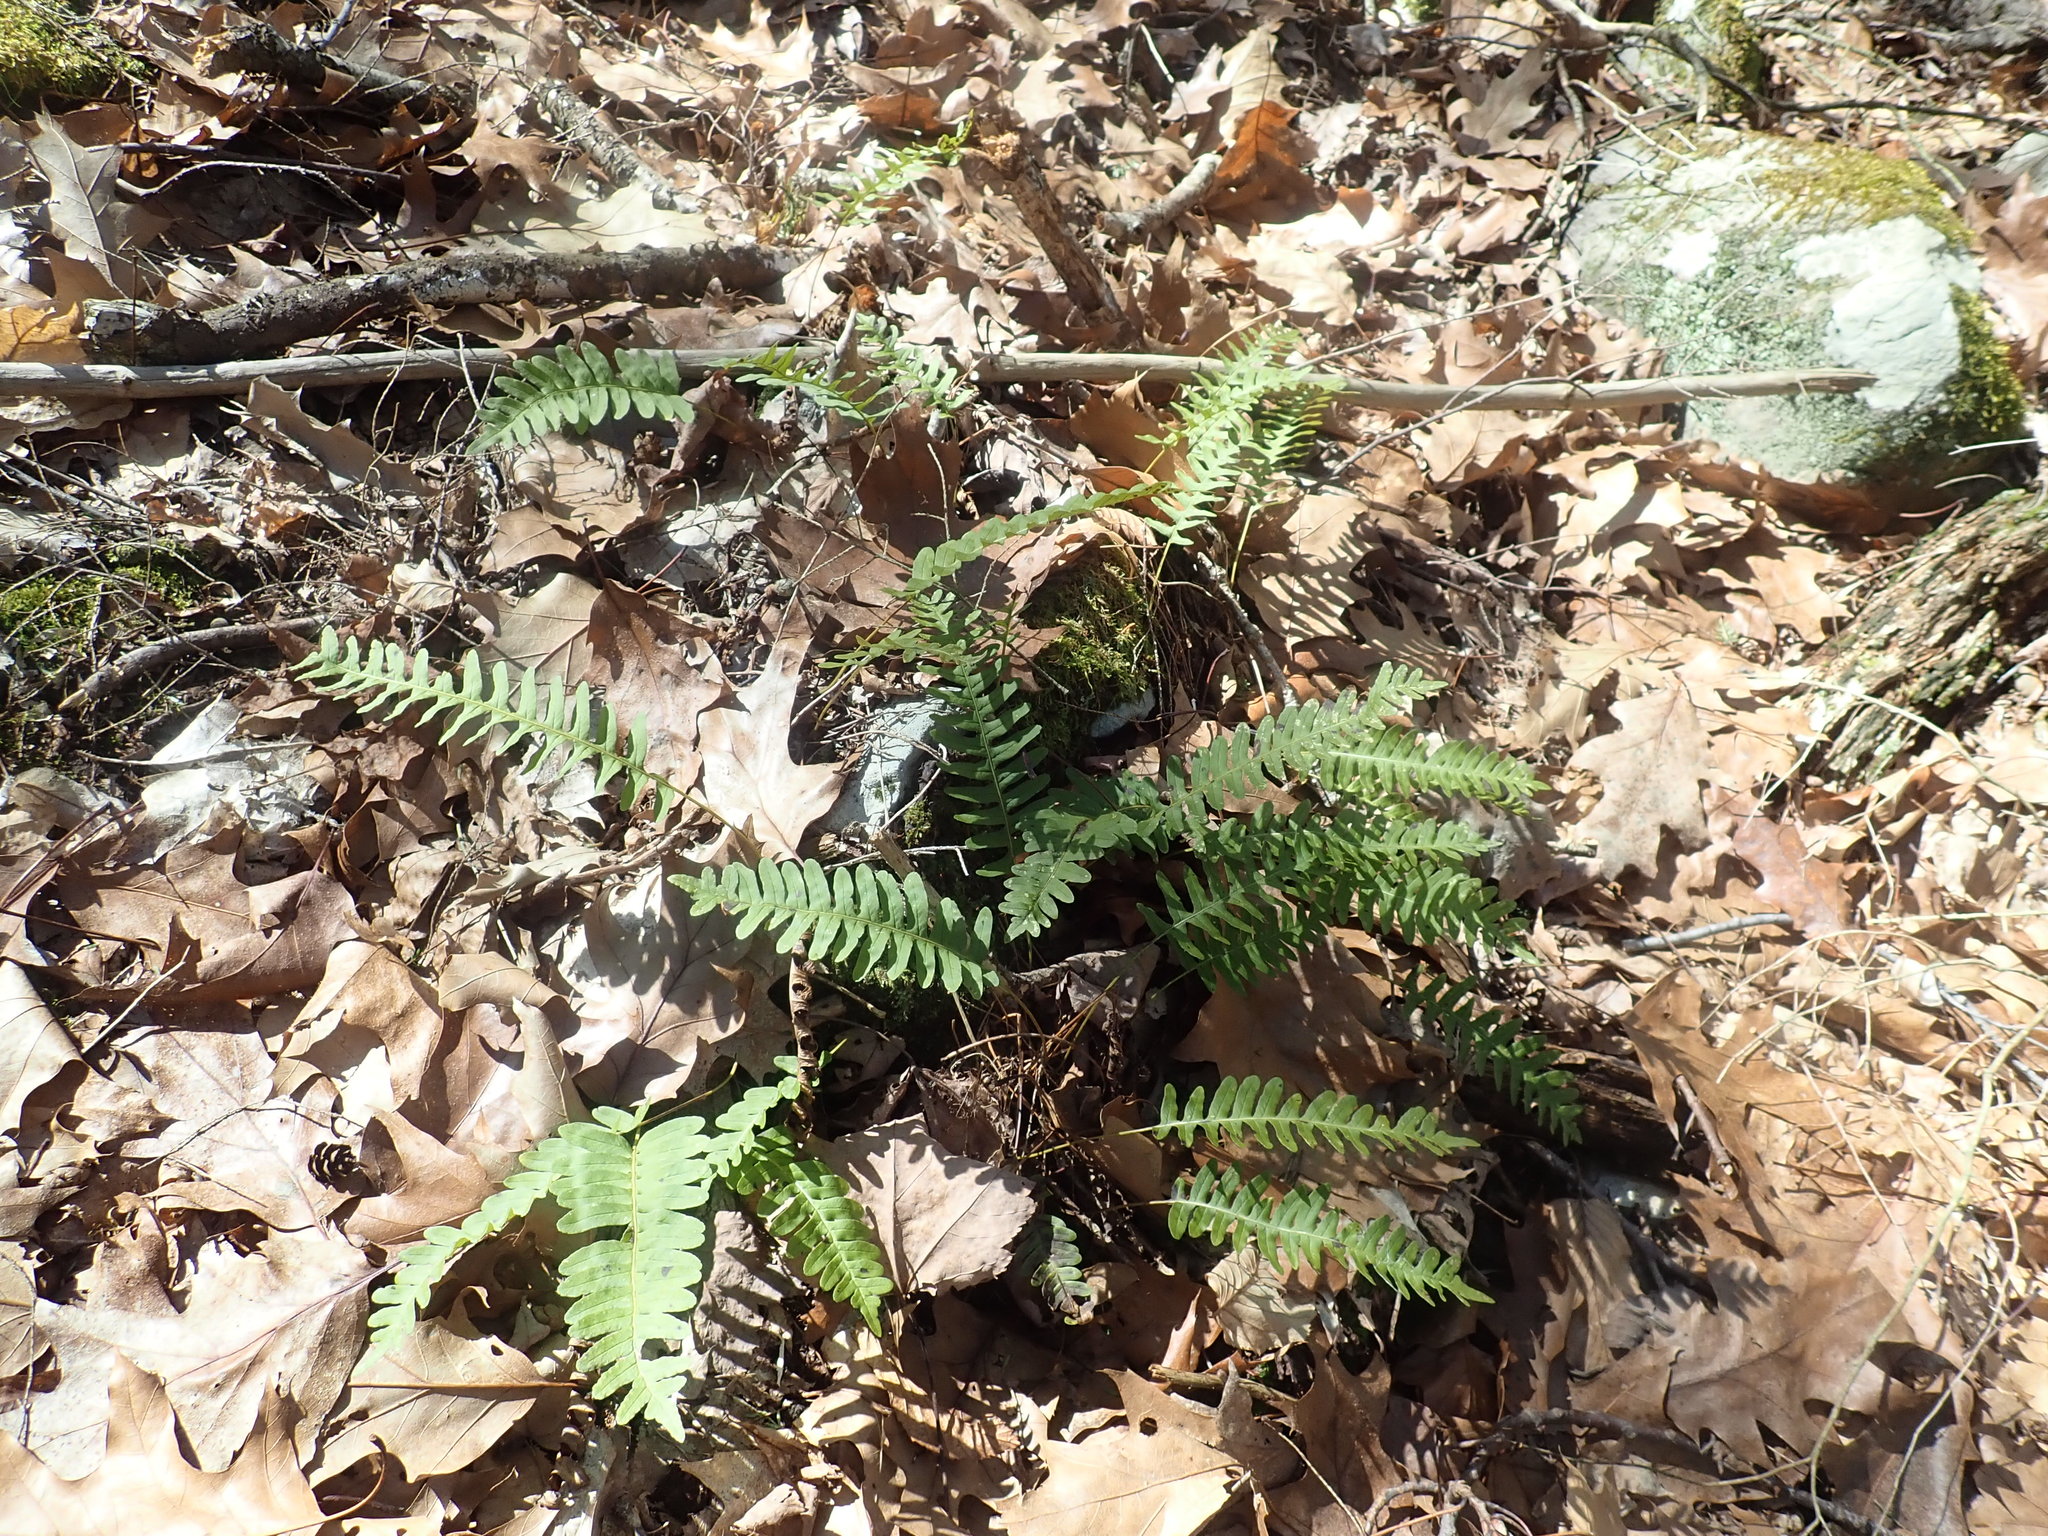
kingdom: Plantae
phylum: Tracheophyta
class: Polypodiopsida
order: Polypodiales
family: Polypodiaceae
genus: Polypodium
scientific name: Polypodium
